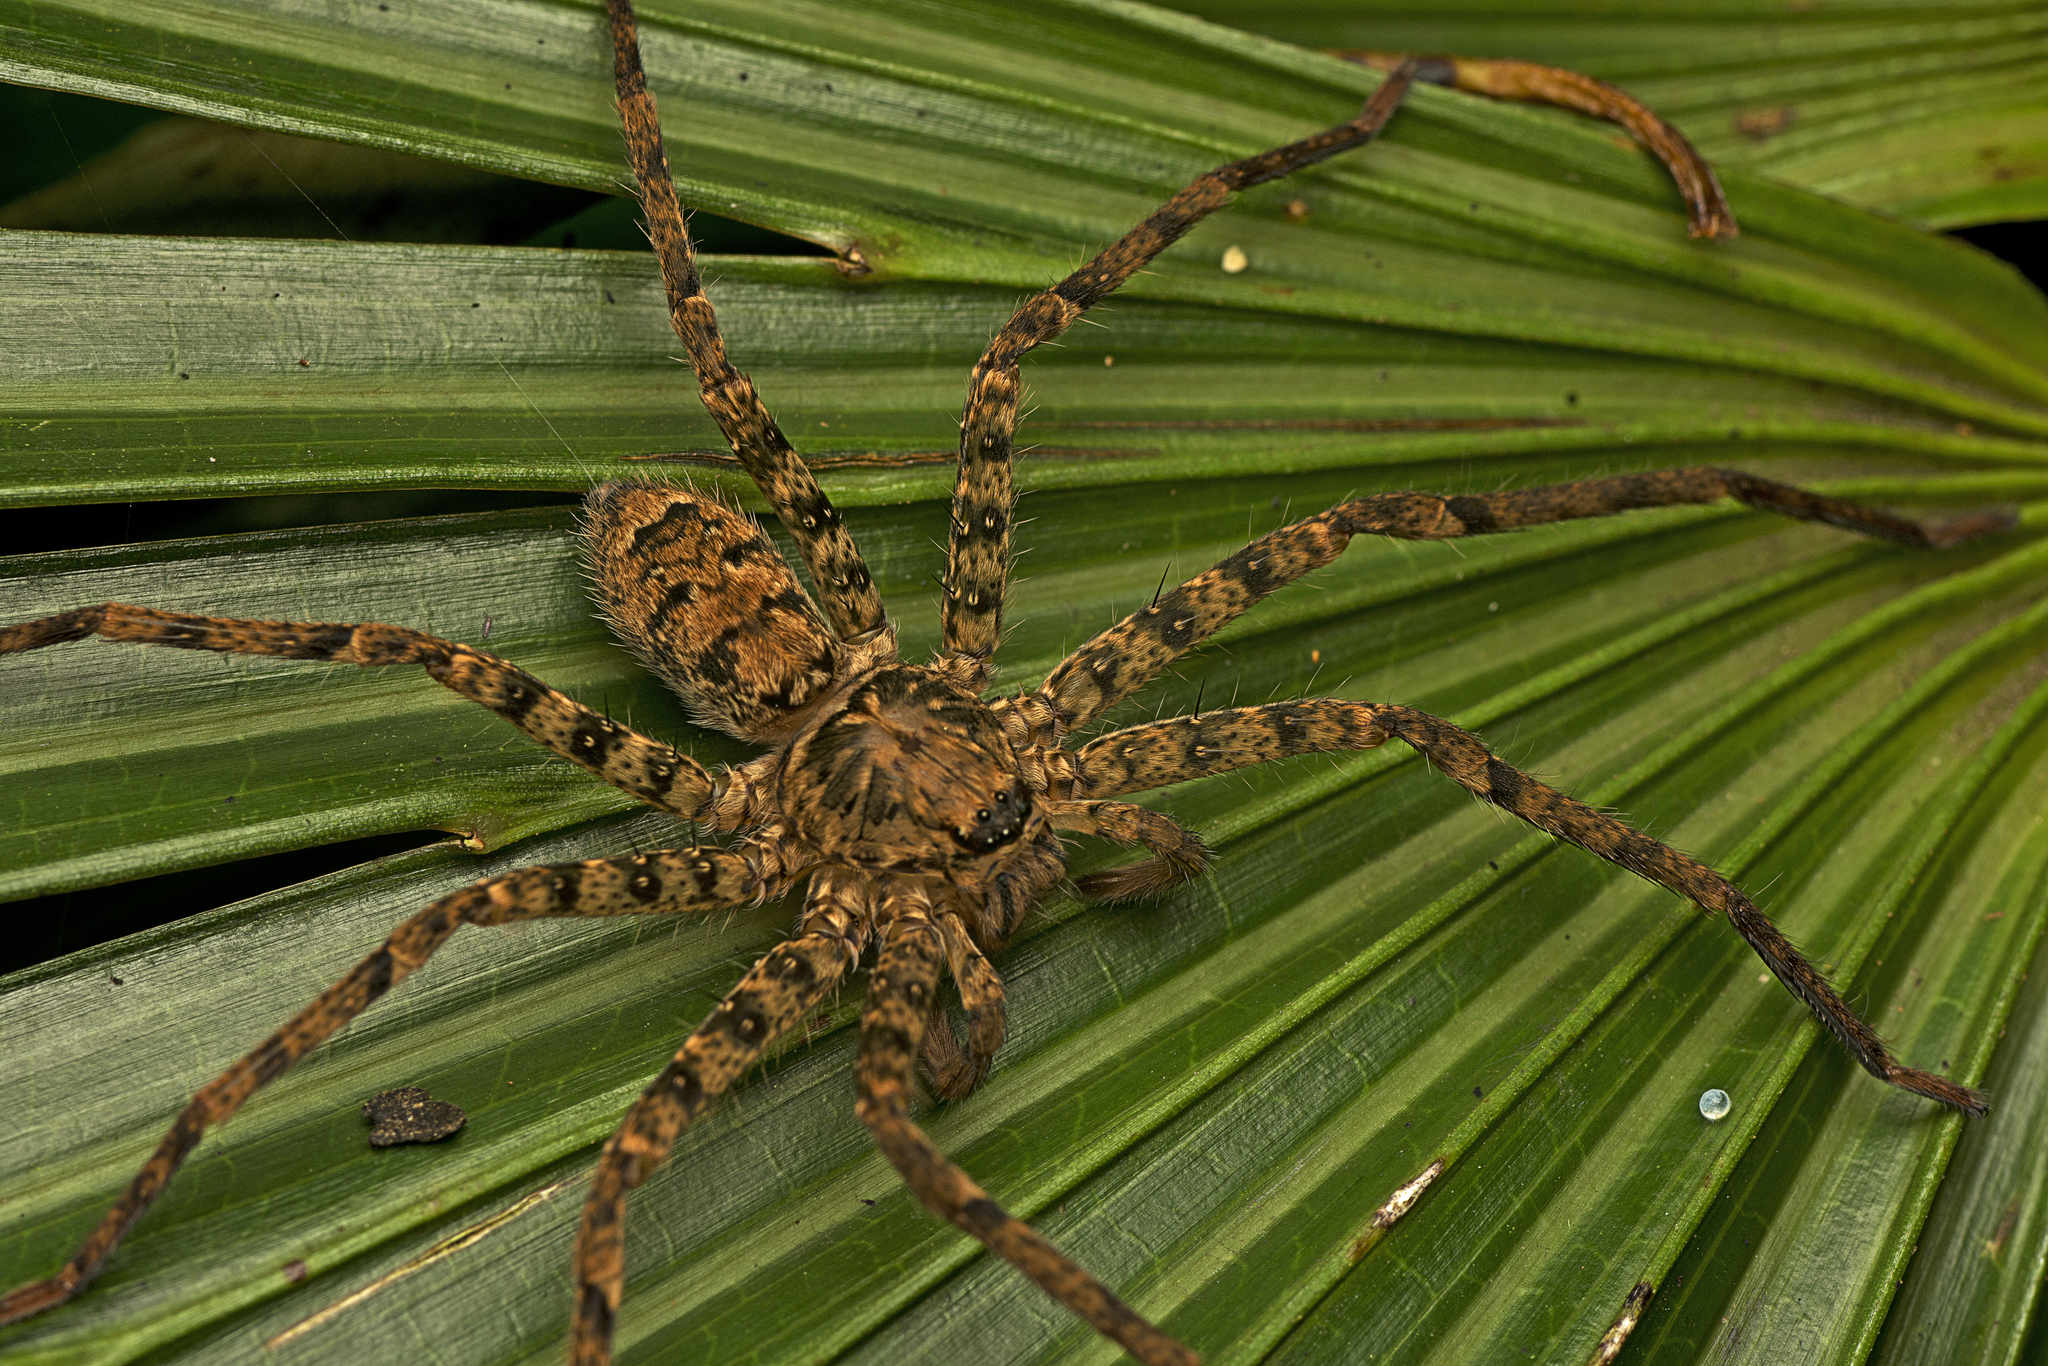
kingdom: Animalia
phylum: Arthropoda
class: Arachnida
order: Araneae
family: Sparassidae
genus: Heteropoda
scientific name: Heteropoda procera
